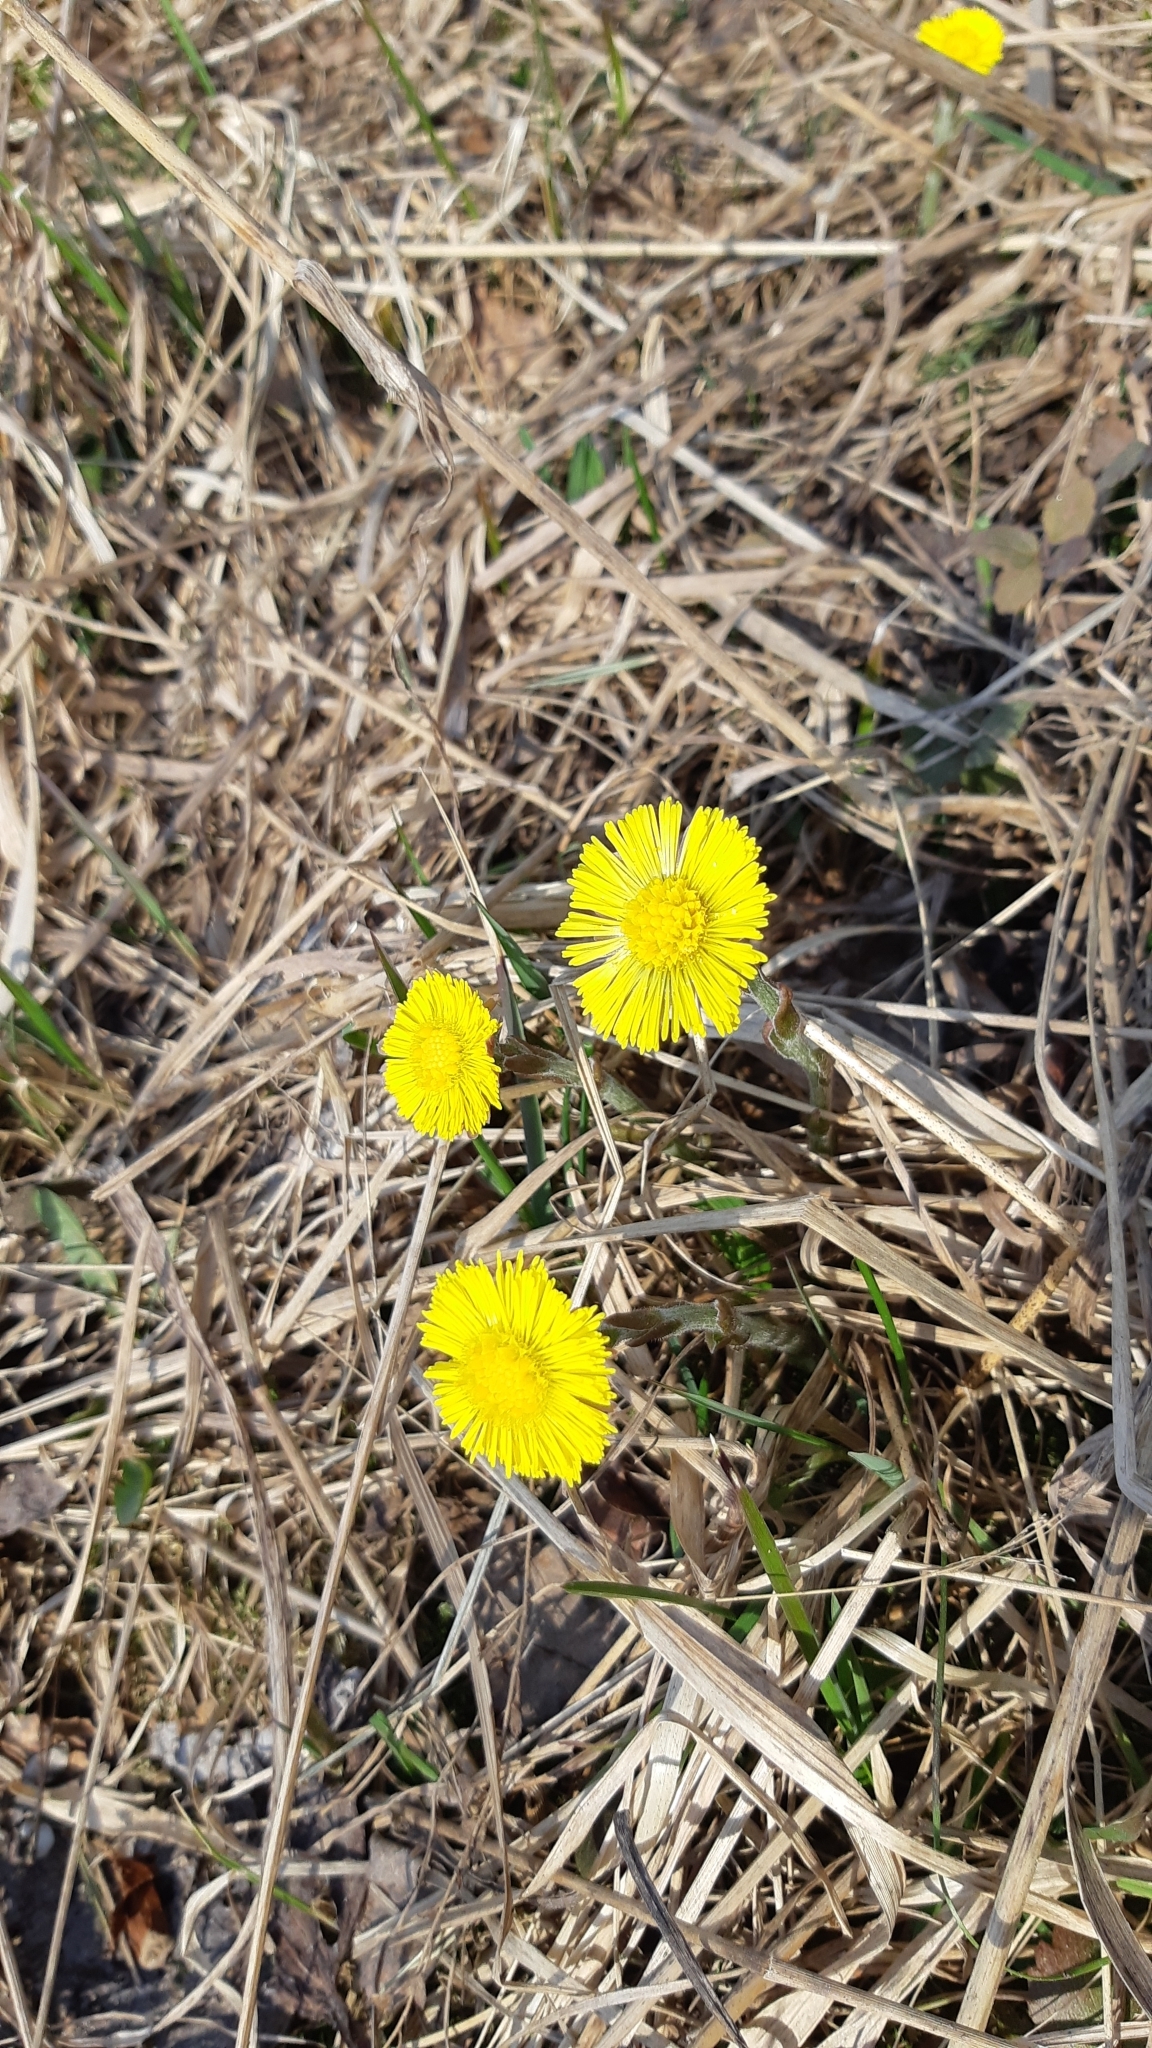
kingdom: Plantae
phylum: Tracheophyta
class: Magnoliopsida
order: Asterales
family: Asteraceae
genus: Tussilago
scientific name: Tussilago farfara
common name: Coltsfoot
